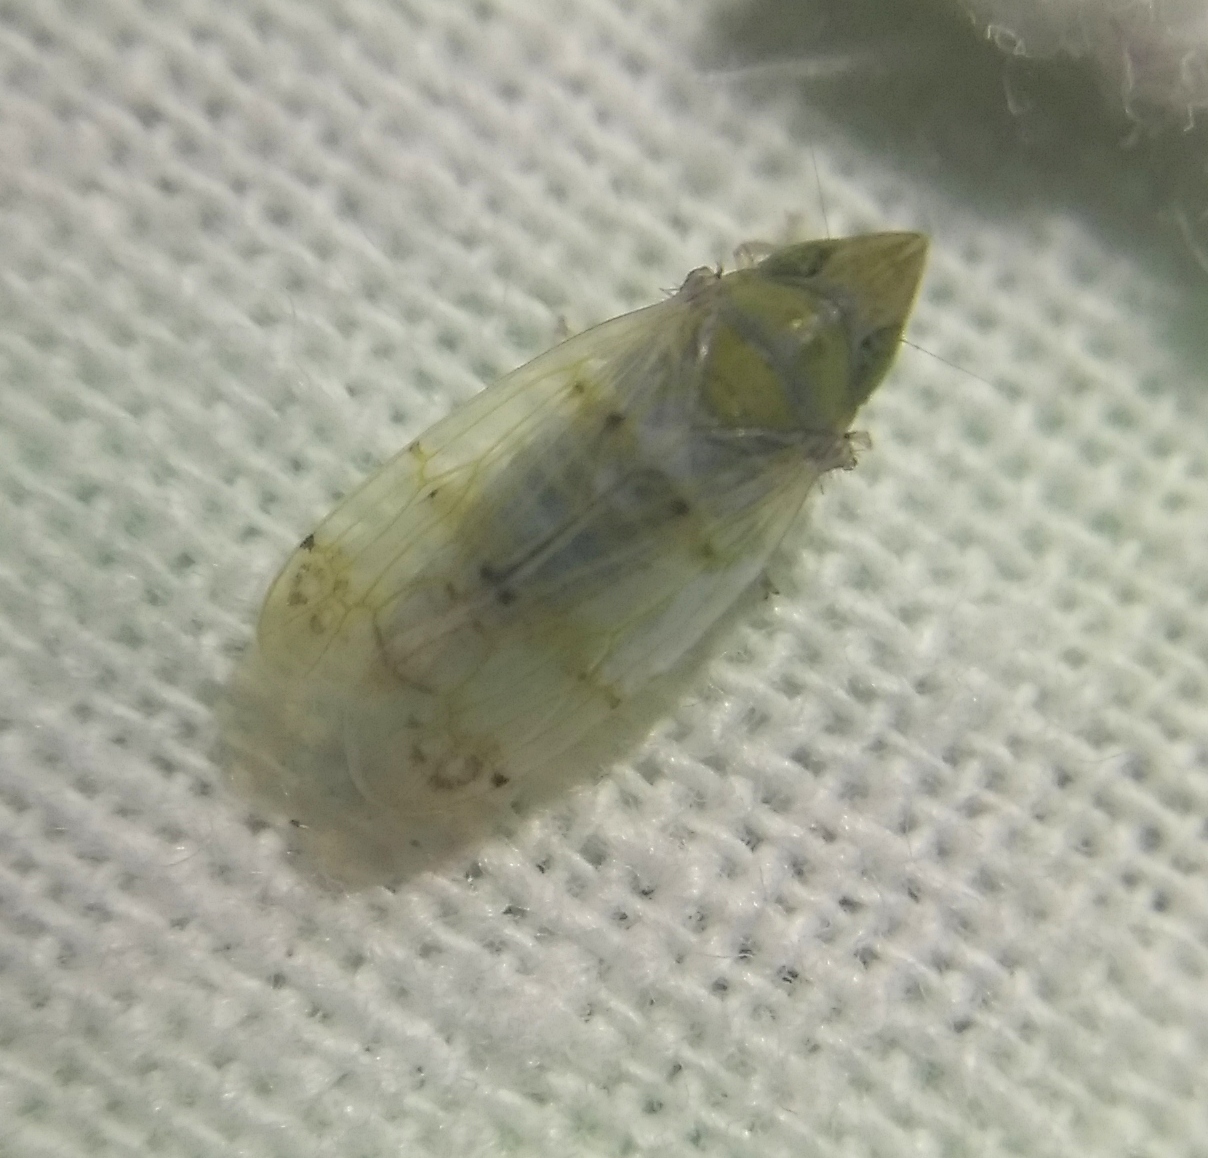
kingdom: Animalia
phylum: Arthropoda
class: Insecta
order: Hemiptera
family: Cicadellidae
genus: Japananus
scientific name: Japananus hyalinus
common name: The japanese maple leafhopper
